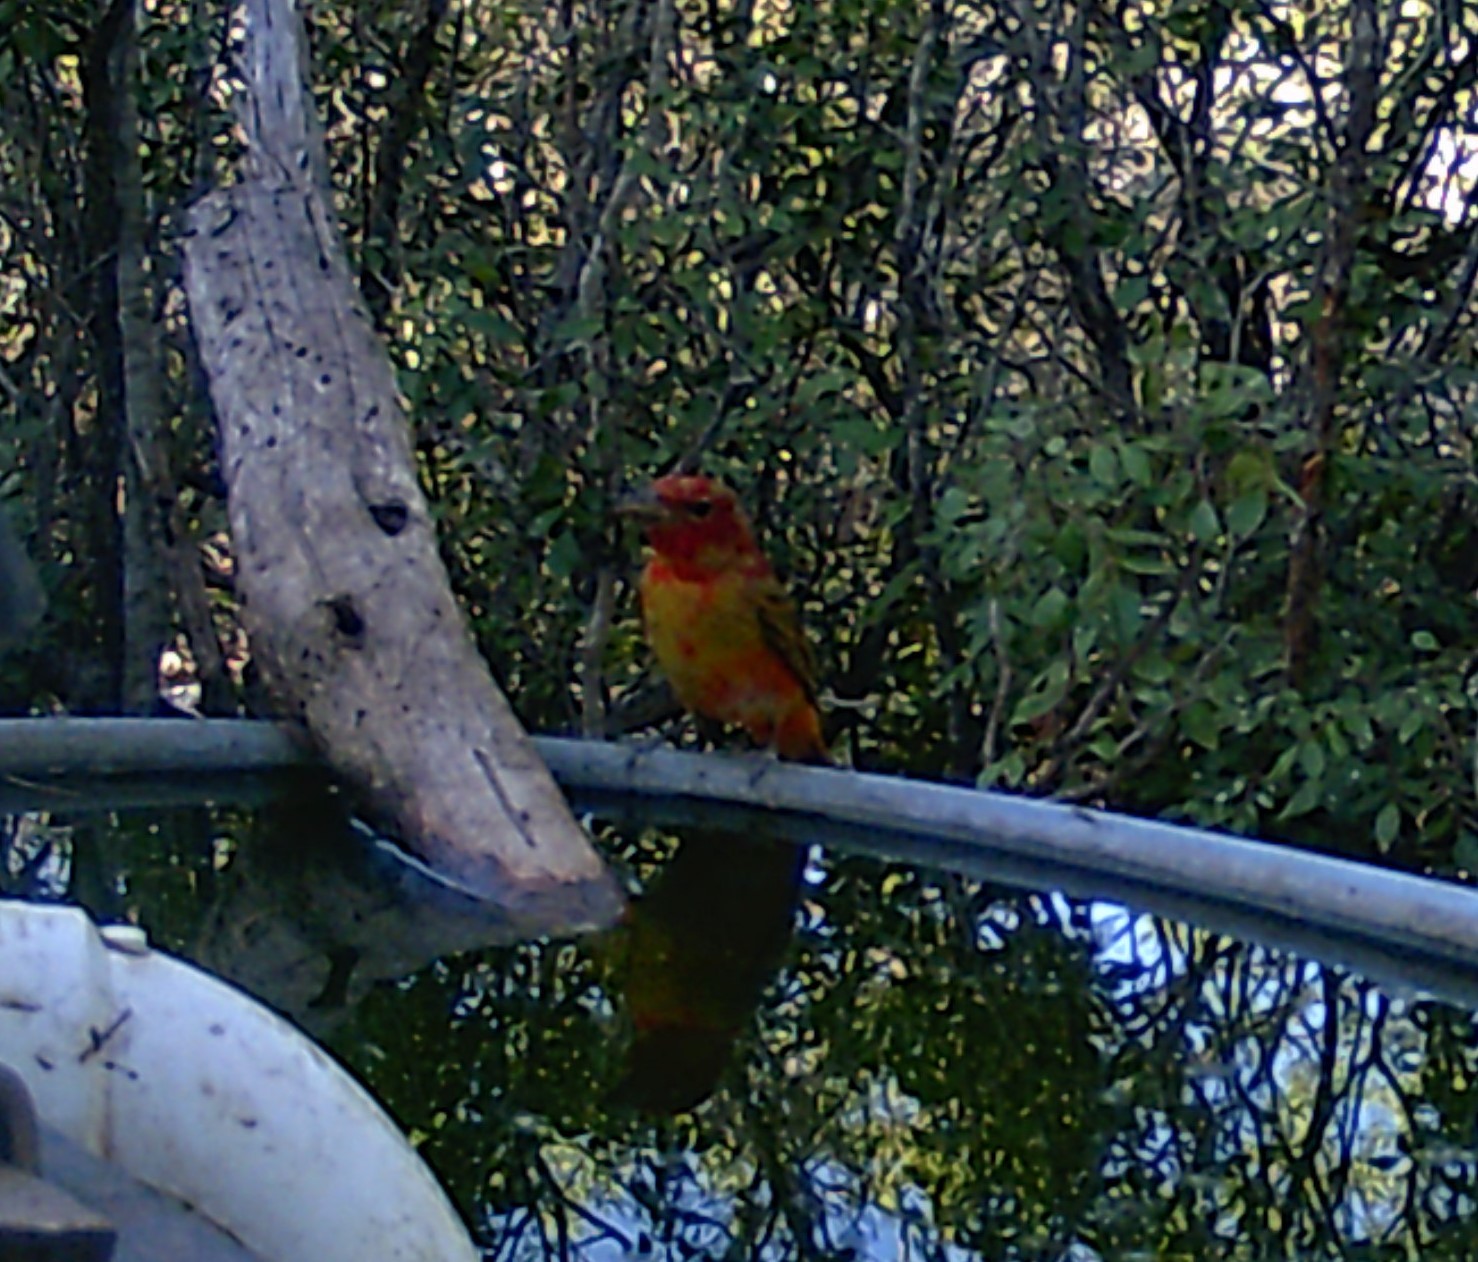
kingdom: Animalia
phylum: Chordata
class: Aves
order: Passeriformes
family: Cardinalidae
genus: Piranga
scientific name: Piranga rubra
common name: Summer tanager
